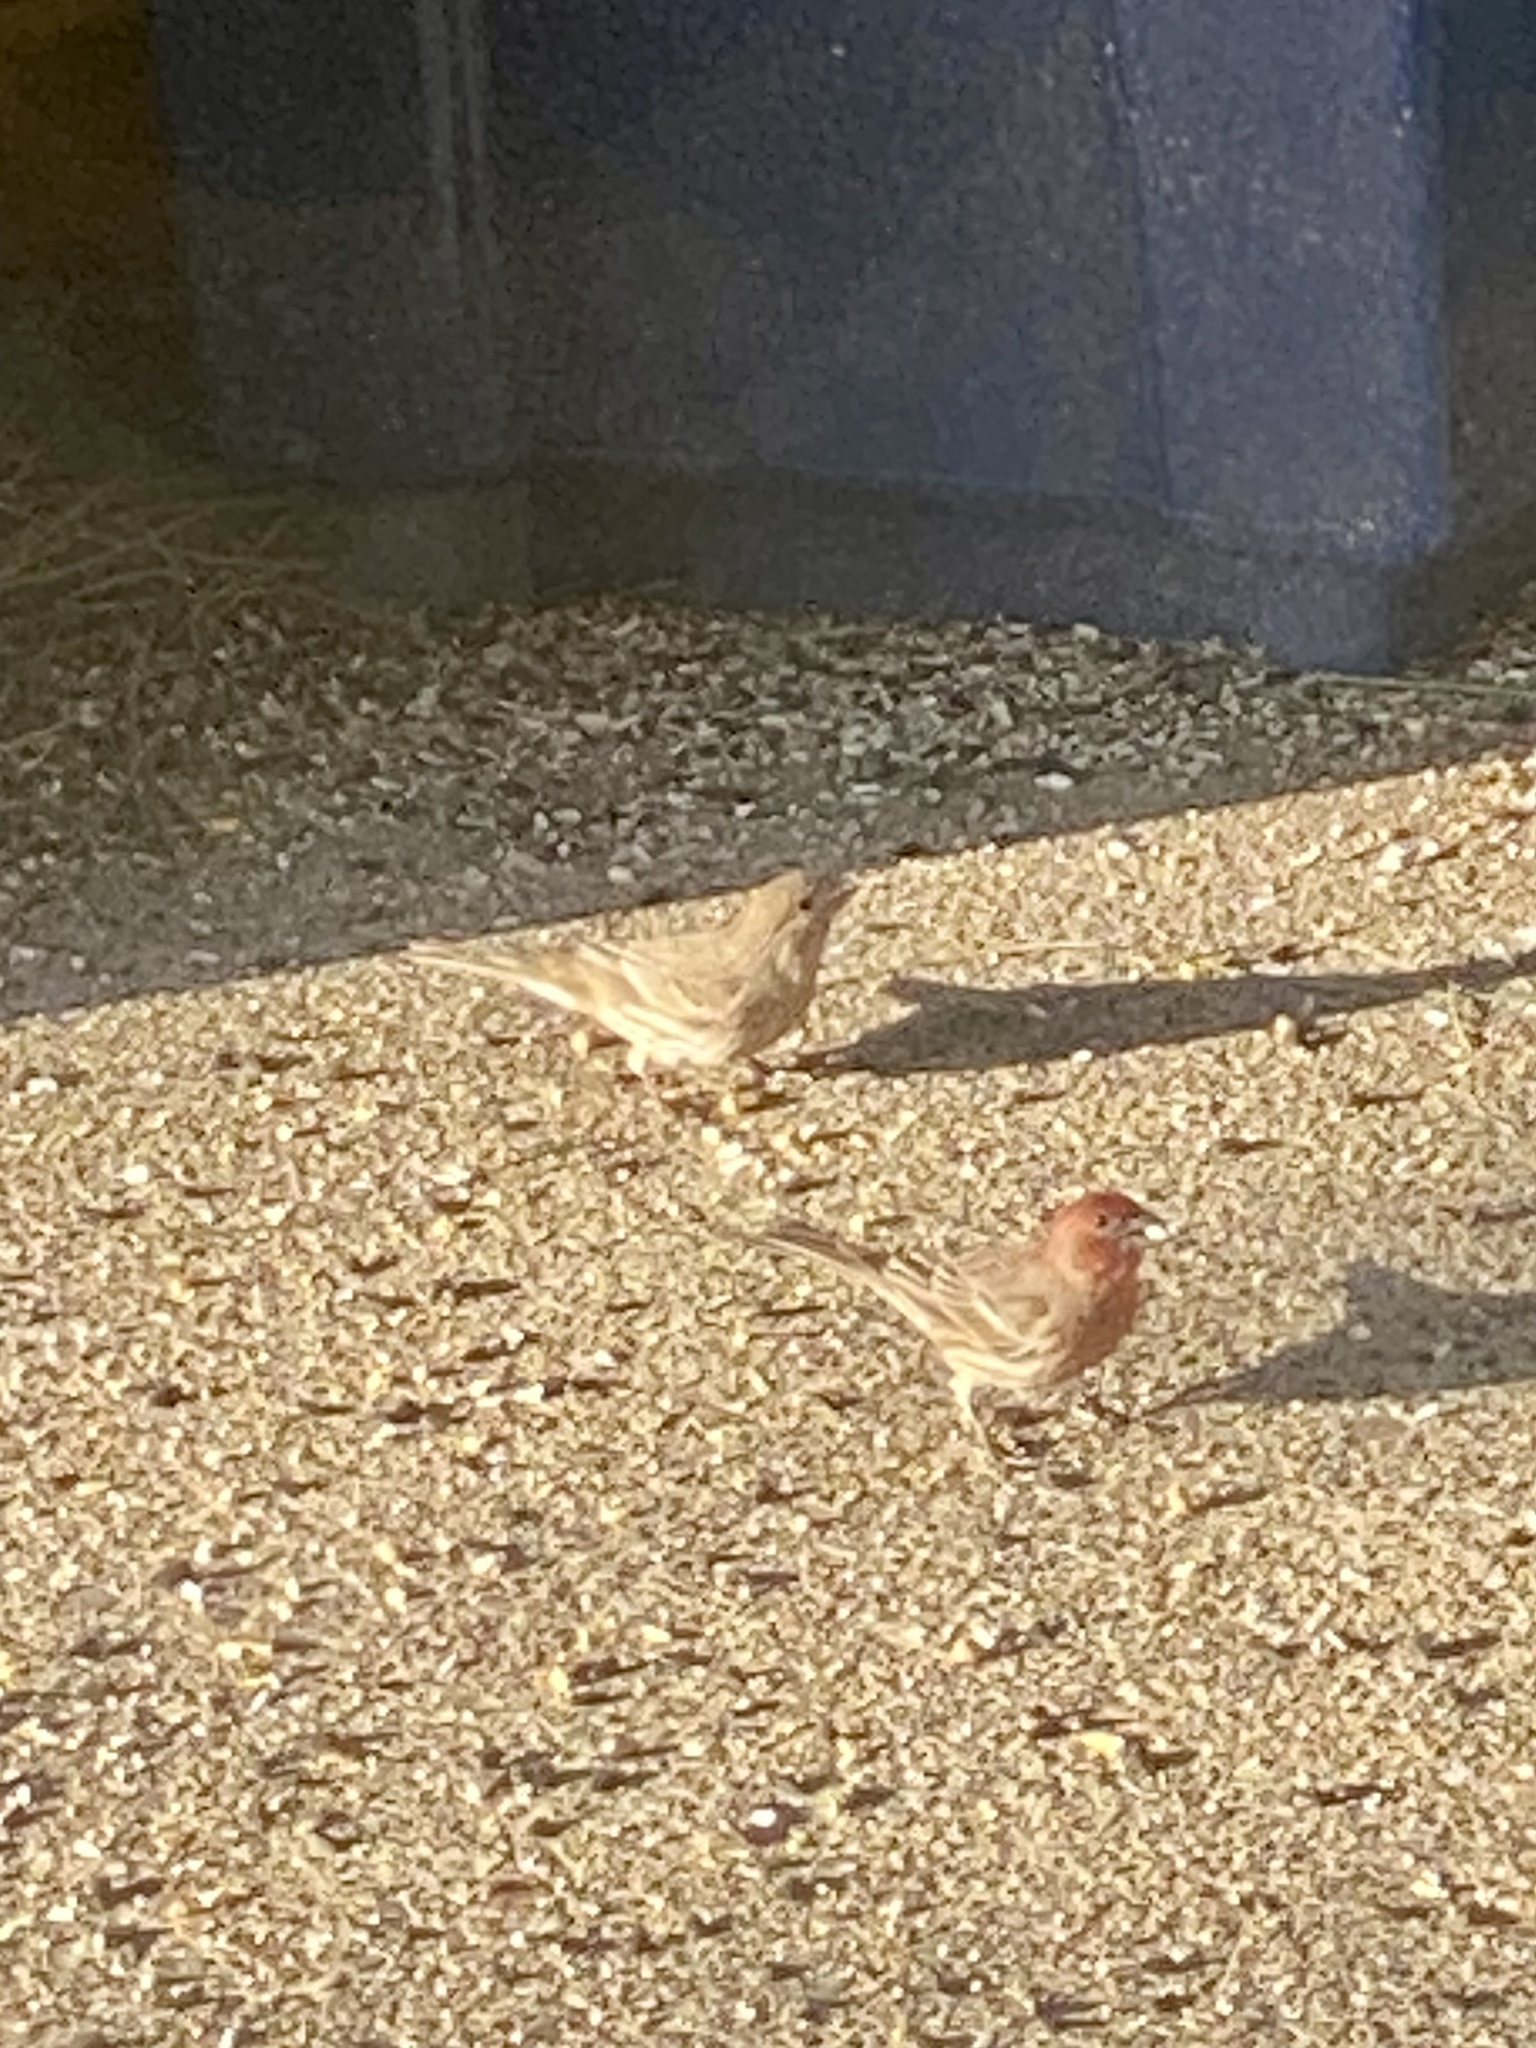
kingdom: Animalia
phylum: Chordata
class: Aves
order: Passeriformes
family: Fringillidae
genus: Haemorhous
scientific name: Haemorhous mexicanus
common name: House finch
